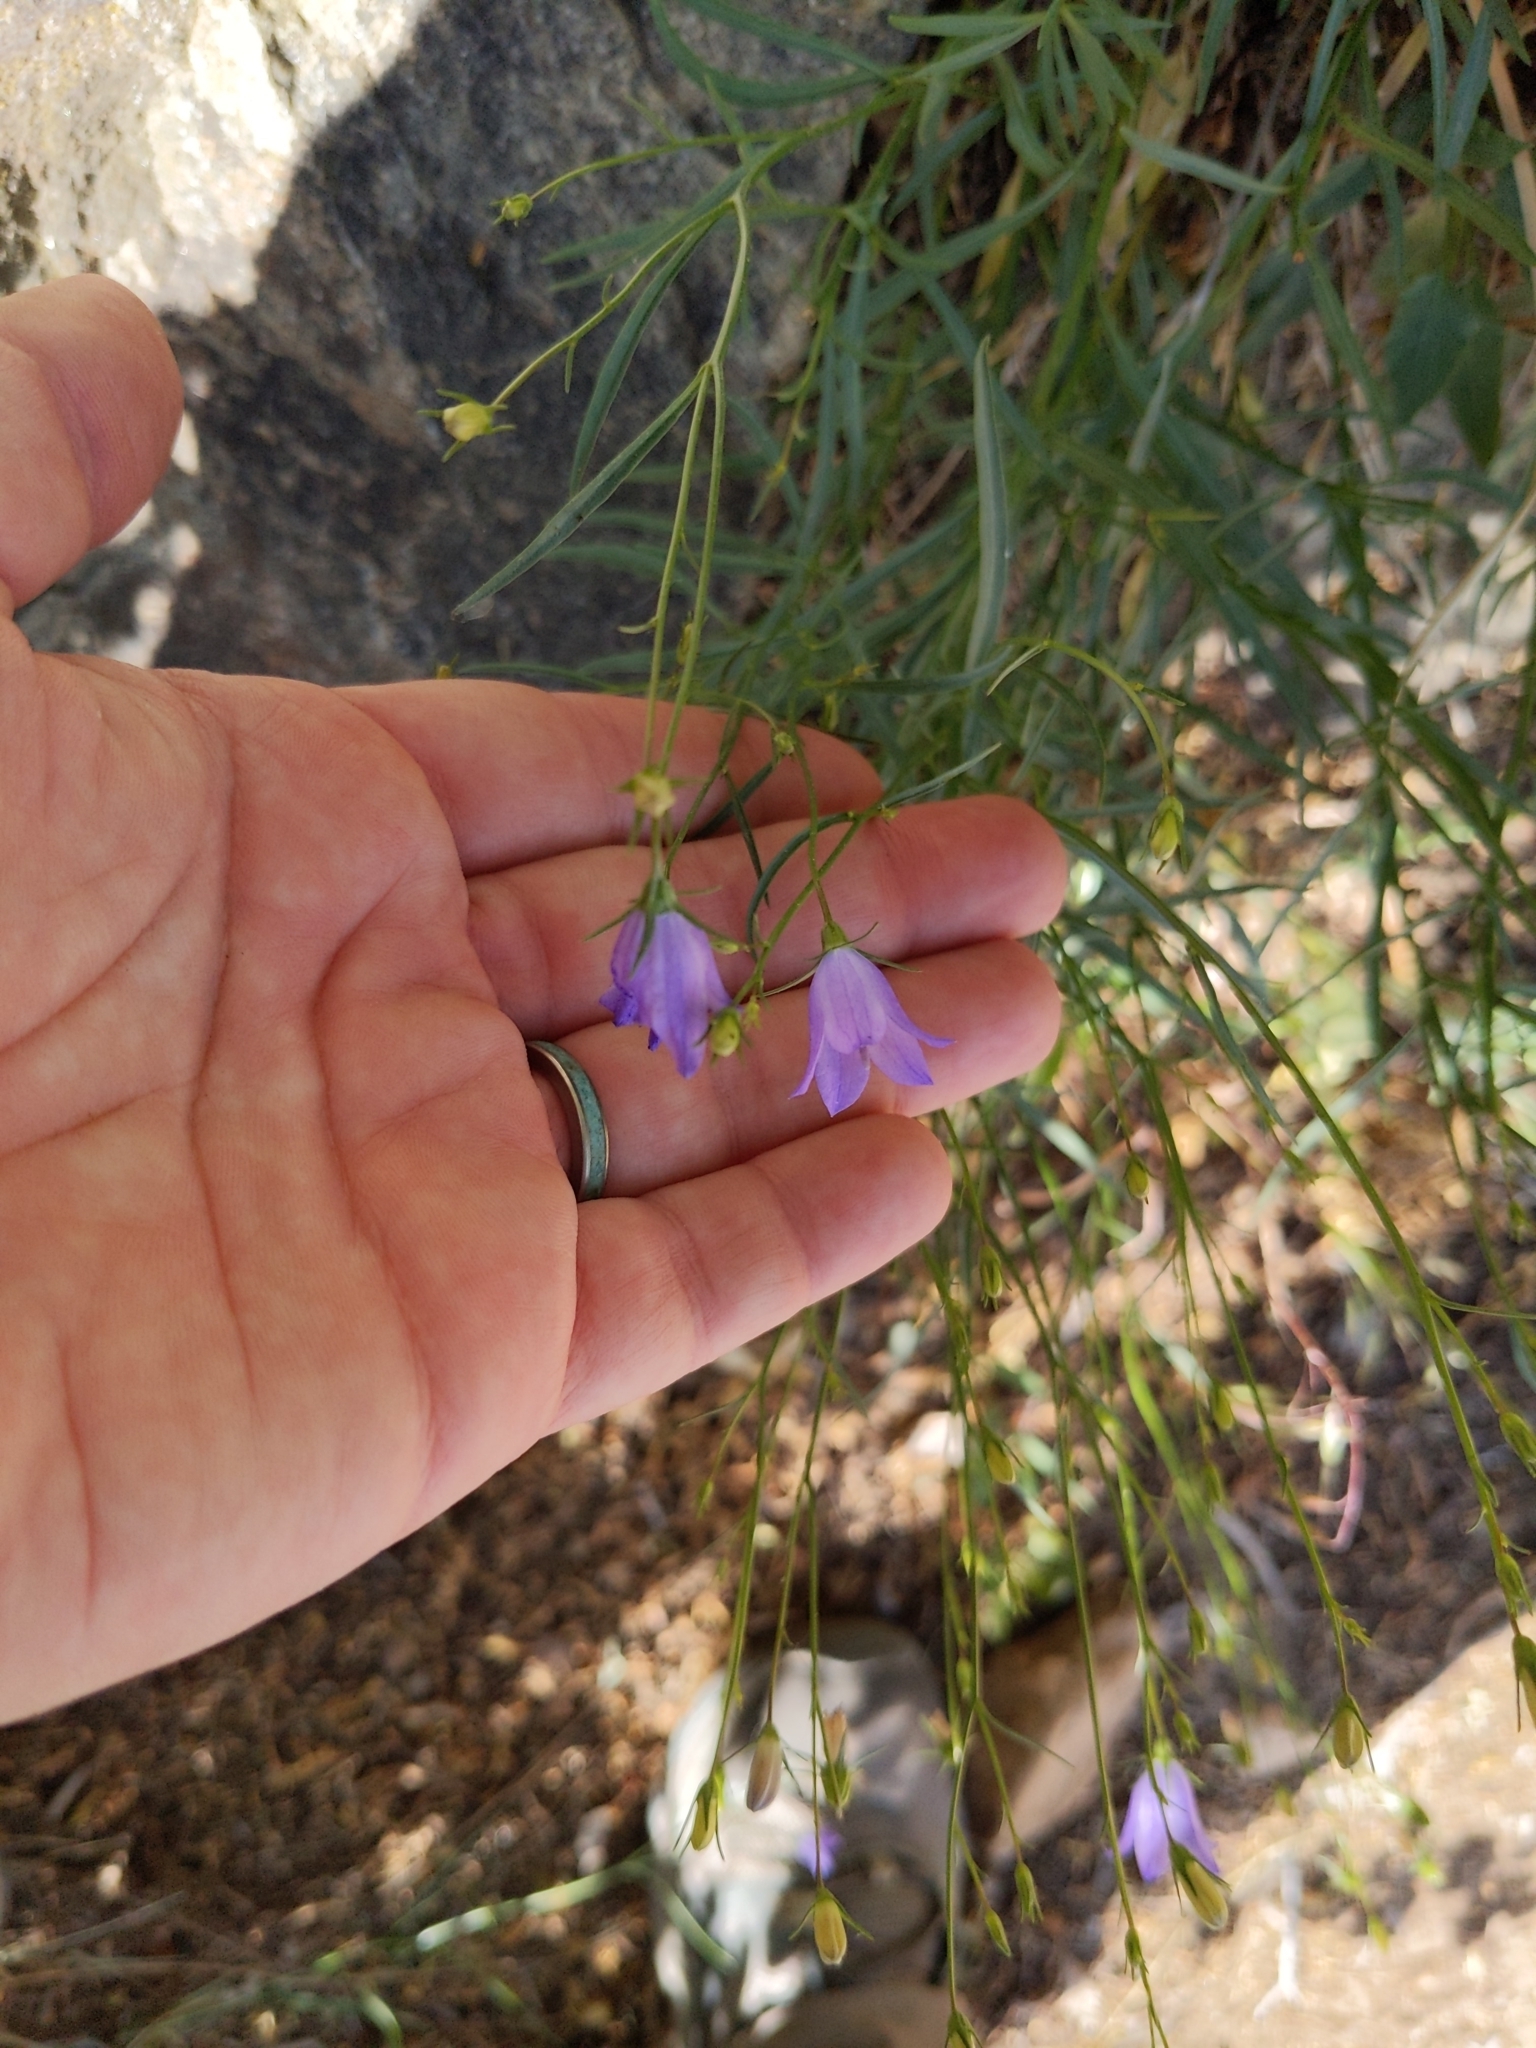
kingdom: Plantae
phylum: Tracheophyta
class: Magnoliopsida
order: Asterales
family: Campanulaceae
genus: Campanula
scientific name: Campanula petiolata
